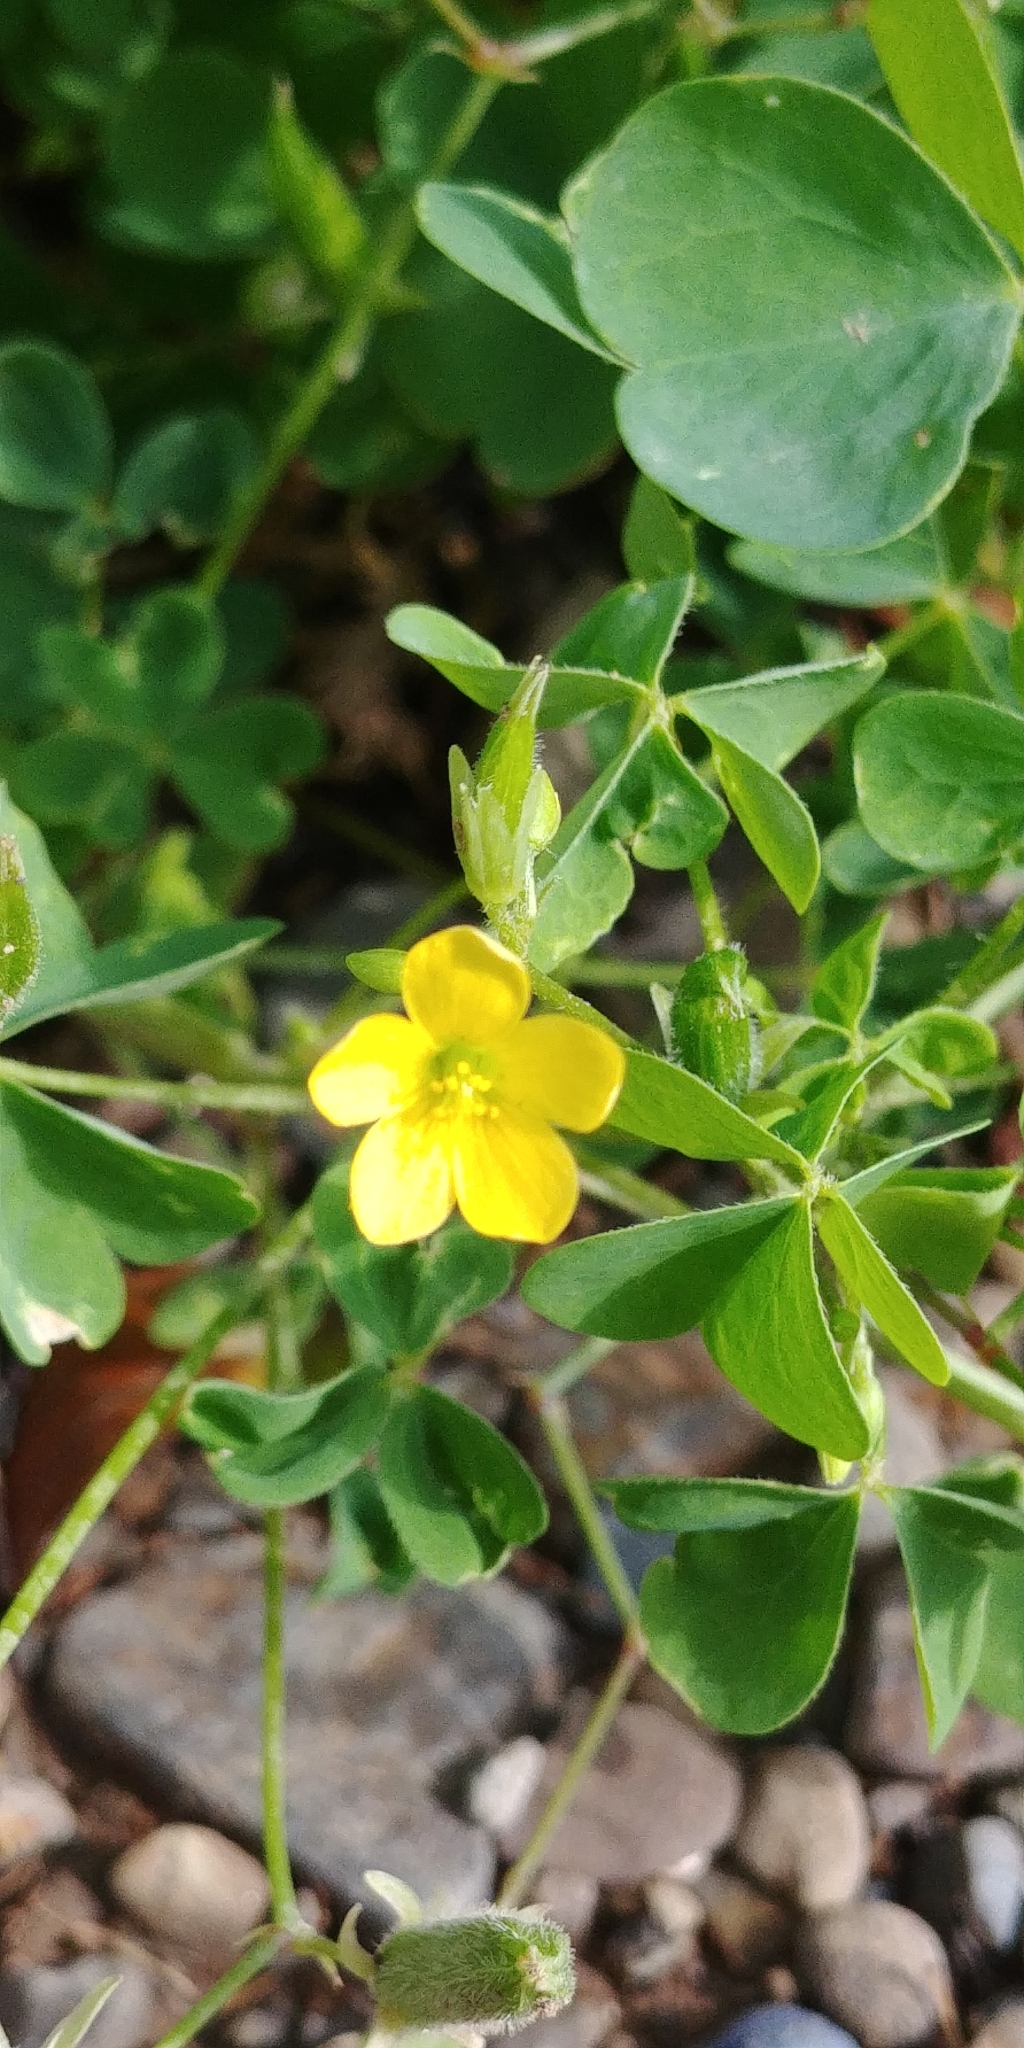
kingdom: Plantae
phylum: Tracheophyta
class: Magnoliopsida
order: Oxalidales
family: Oxalidaceae
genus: Oxalis
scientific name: Oxalis stricta
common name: Upright yellow-sorrel
